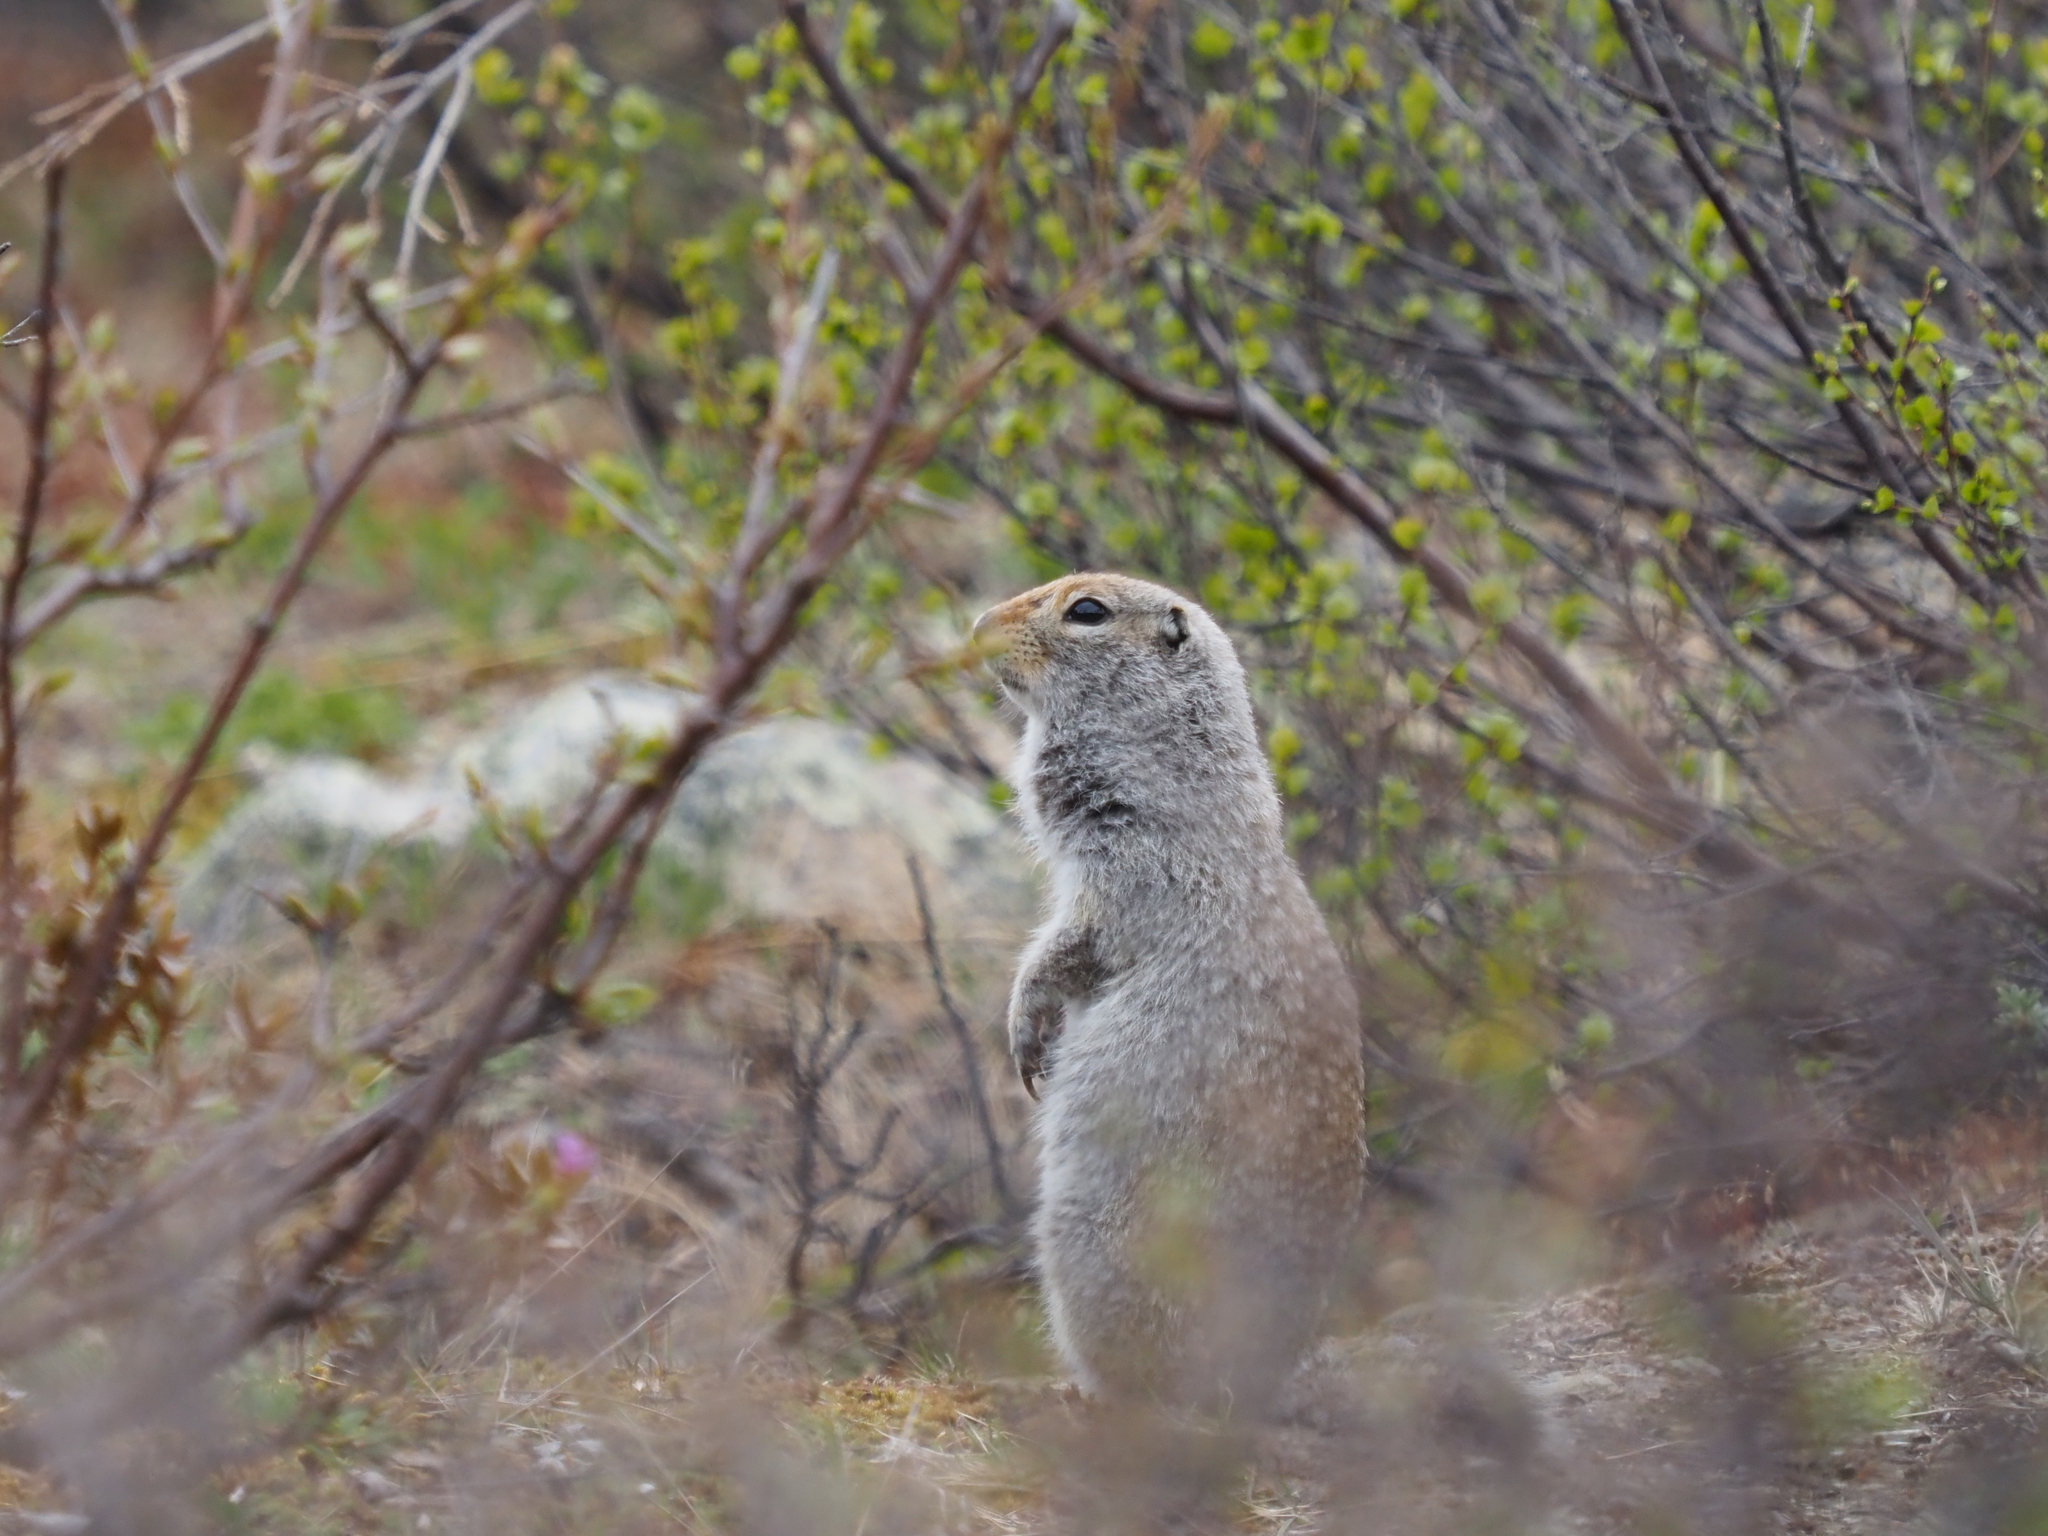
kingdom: Animalia
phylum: Chordata
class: Mammalia
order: Rodentia
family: Sciuridae
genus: Urocitellus
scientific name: Urocitellus parryii
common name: Arctic ground squirrel
